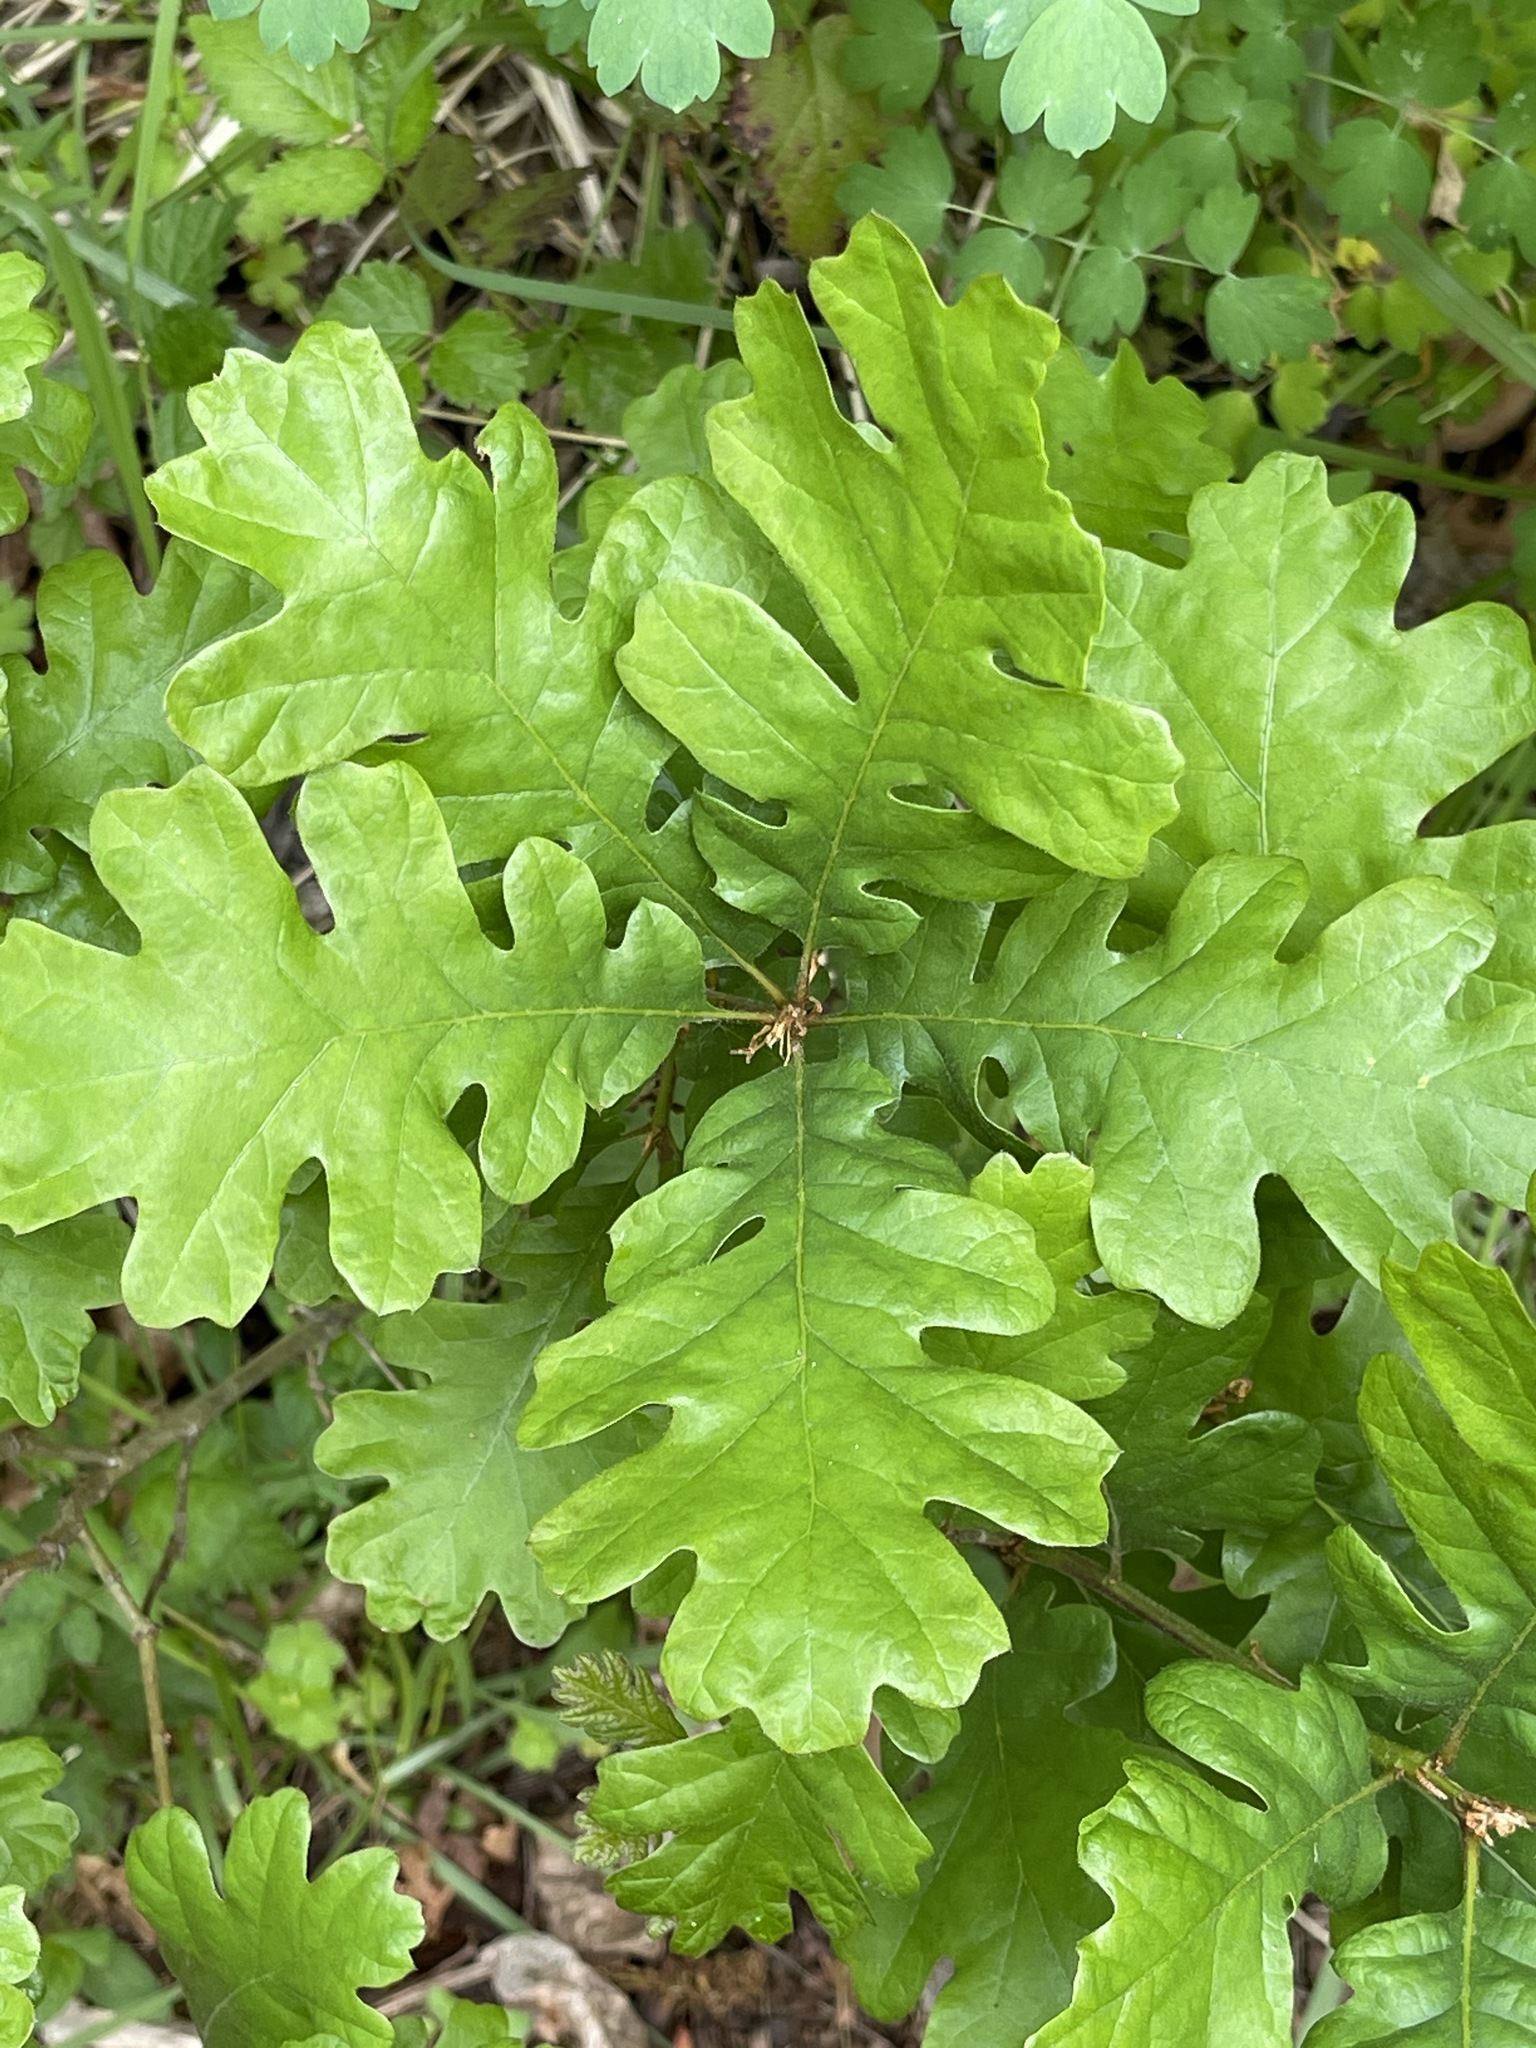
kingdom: Plantae
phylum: Tracheophyta
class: Magnoliopsida
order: Fagales
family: Fagaceae
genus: Quercus
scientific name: Quercus garryana
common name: Garry oak
